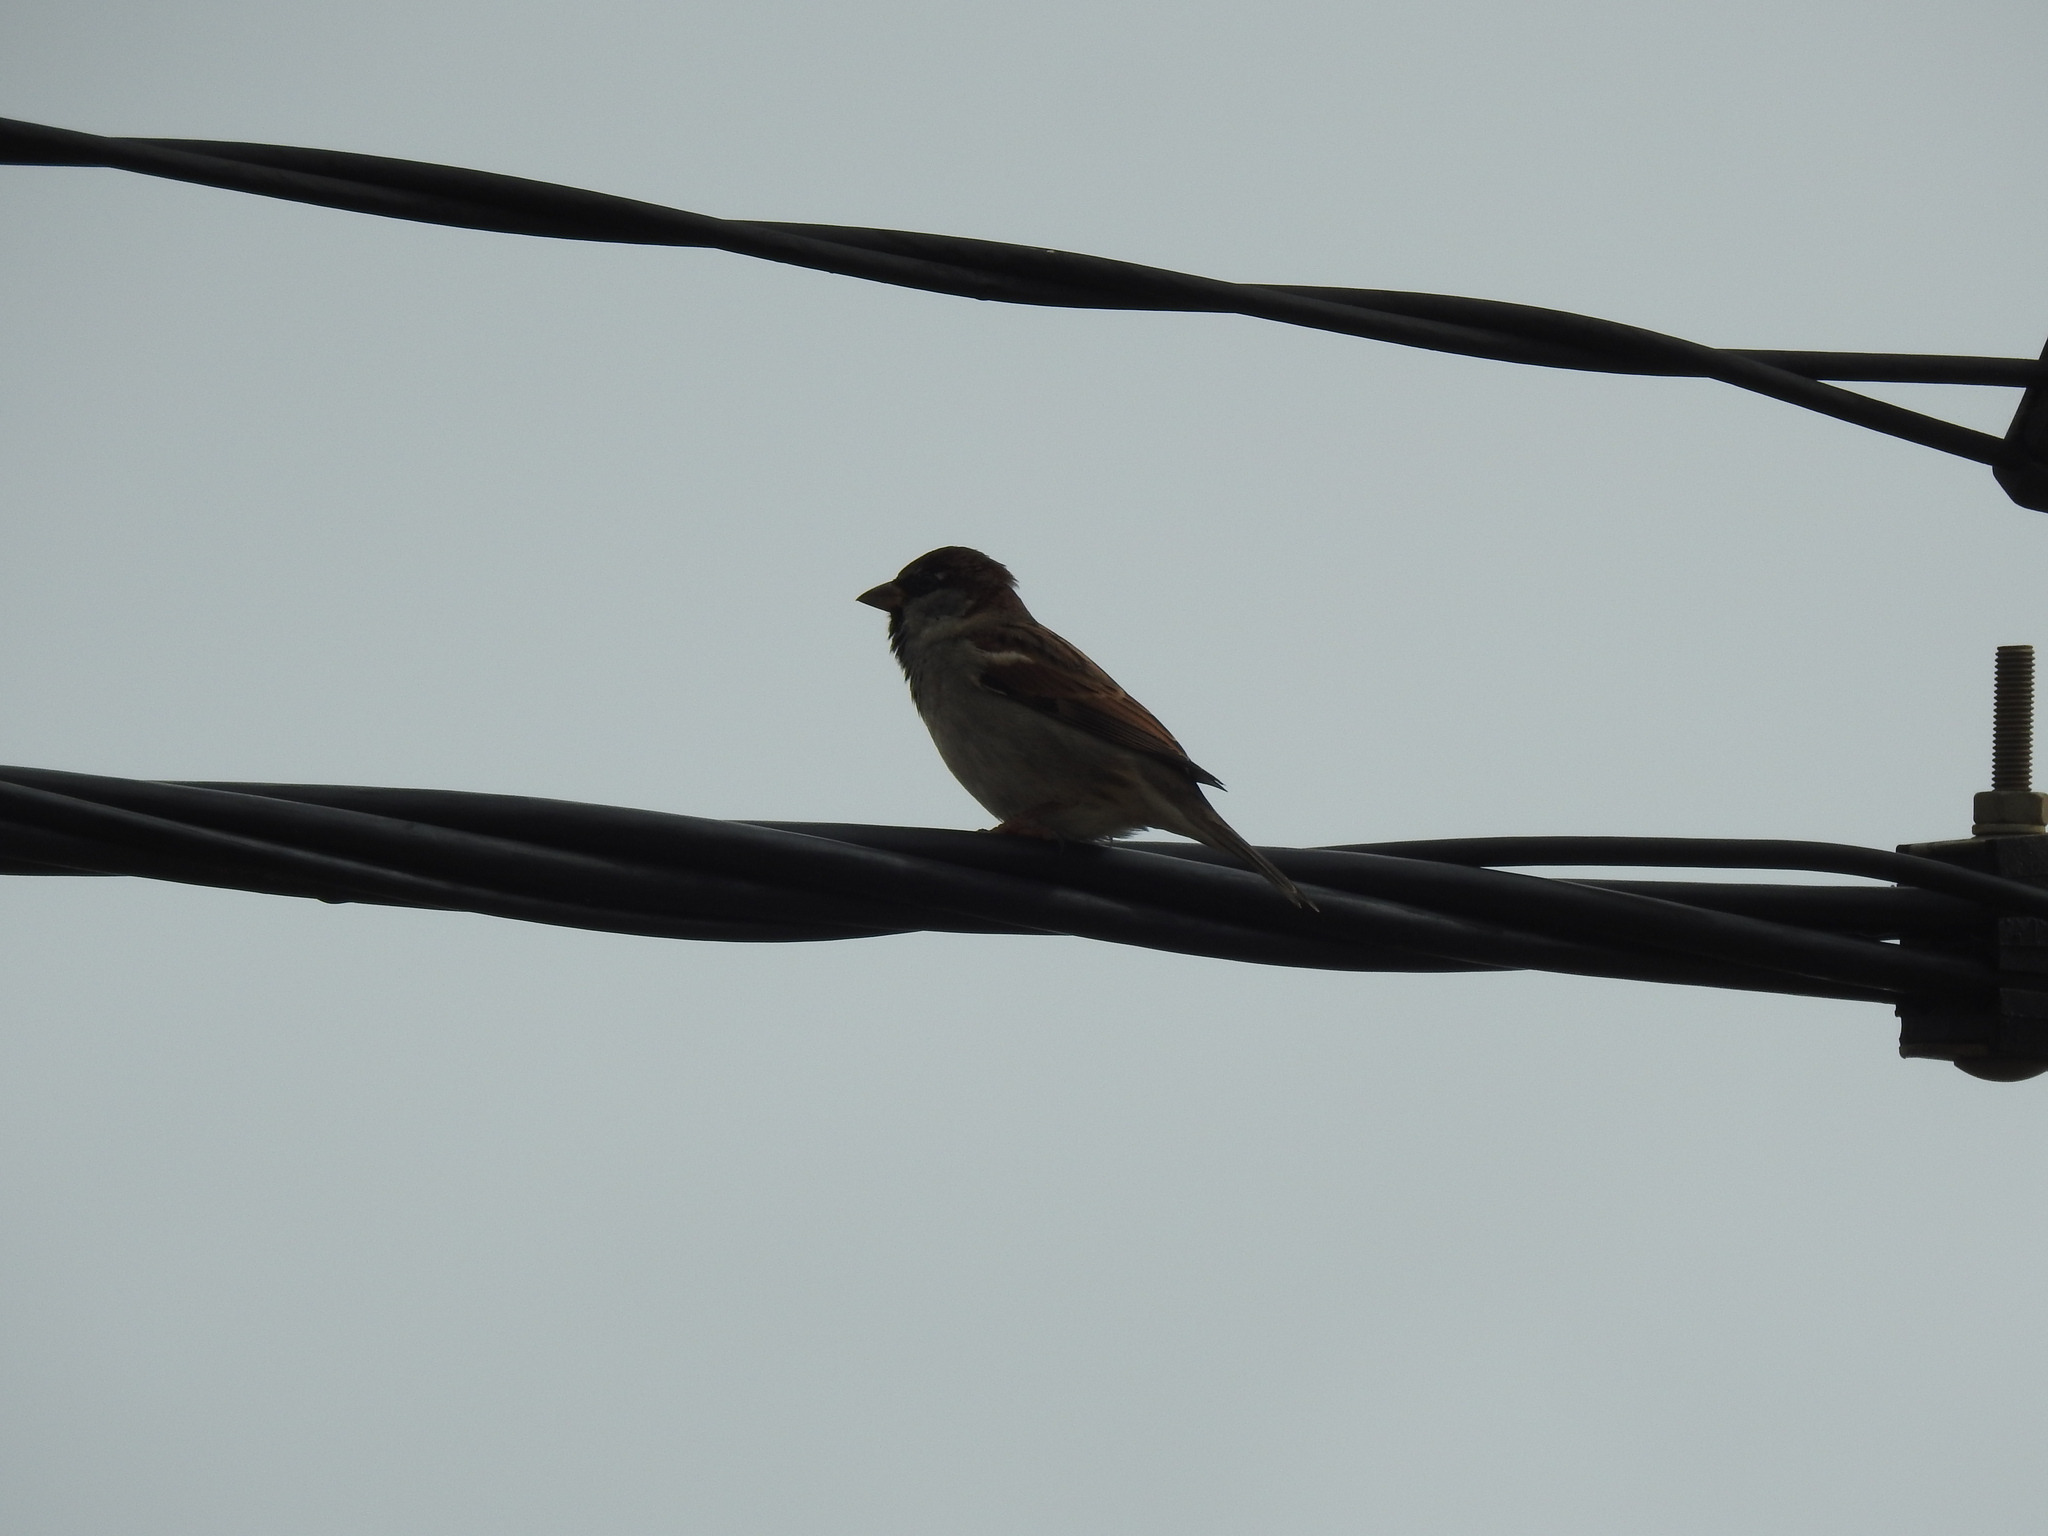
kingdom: Animalia
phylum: Chordata
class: Aves
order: Passeriformes
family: Passeridae
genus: Passer
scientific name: Passer domesticus
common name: House sparrow
